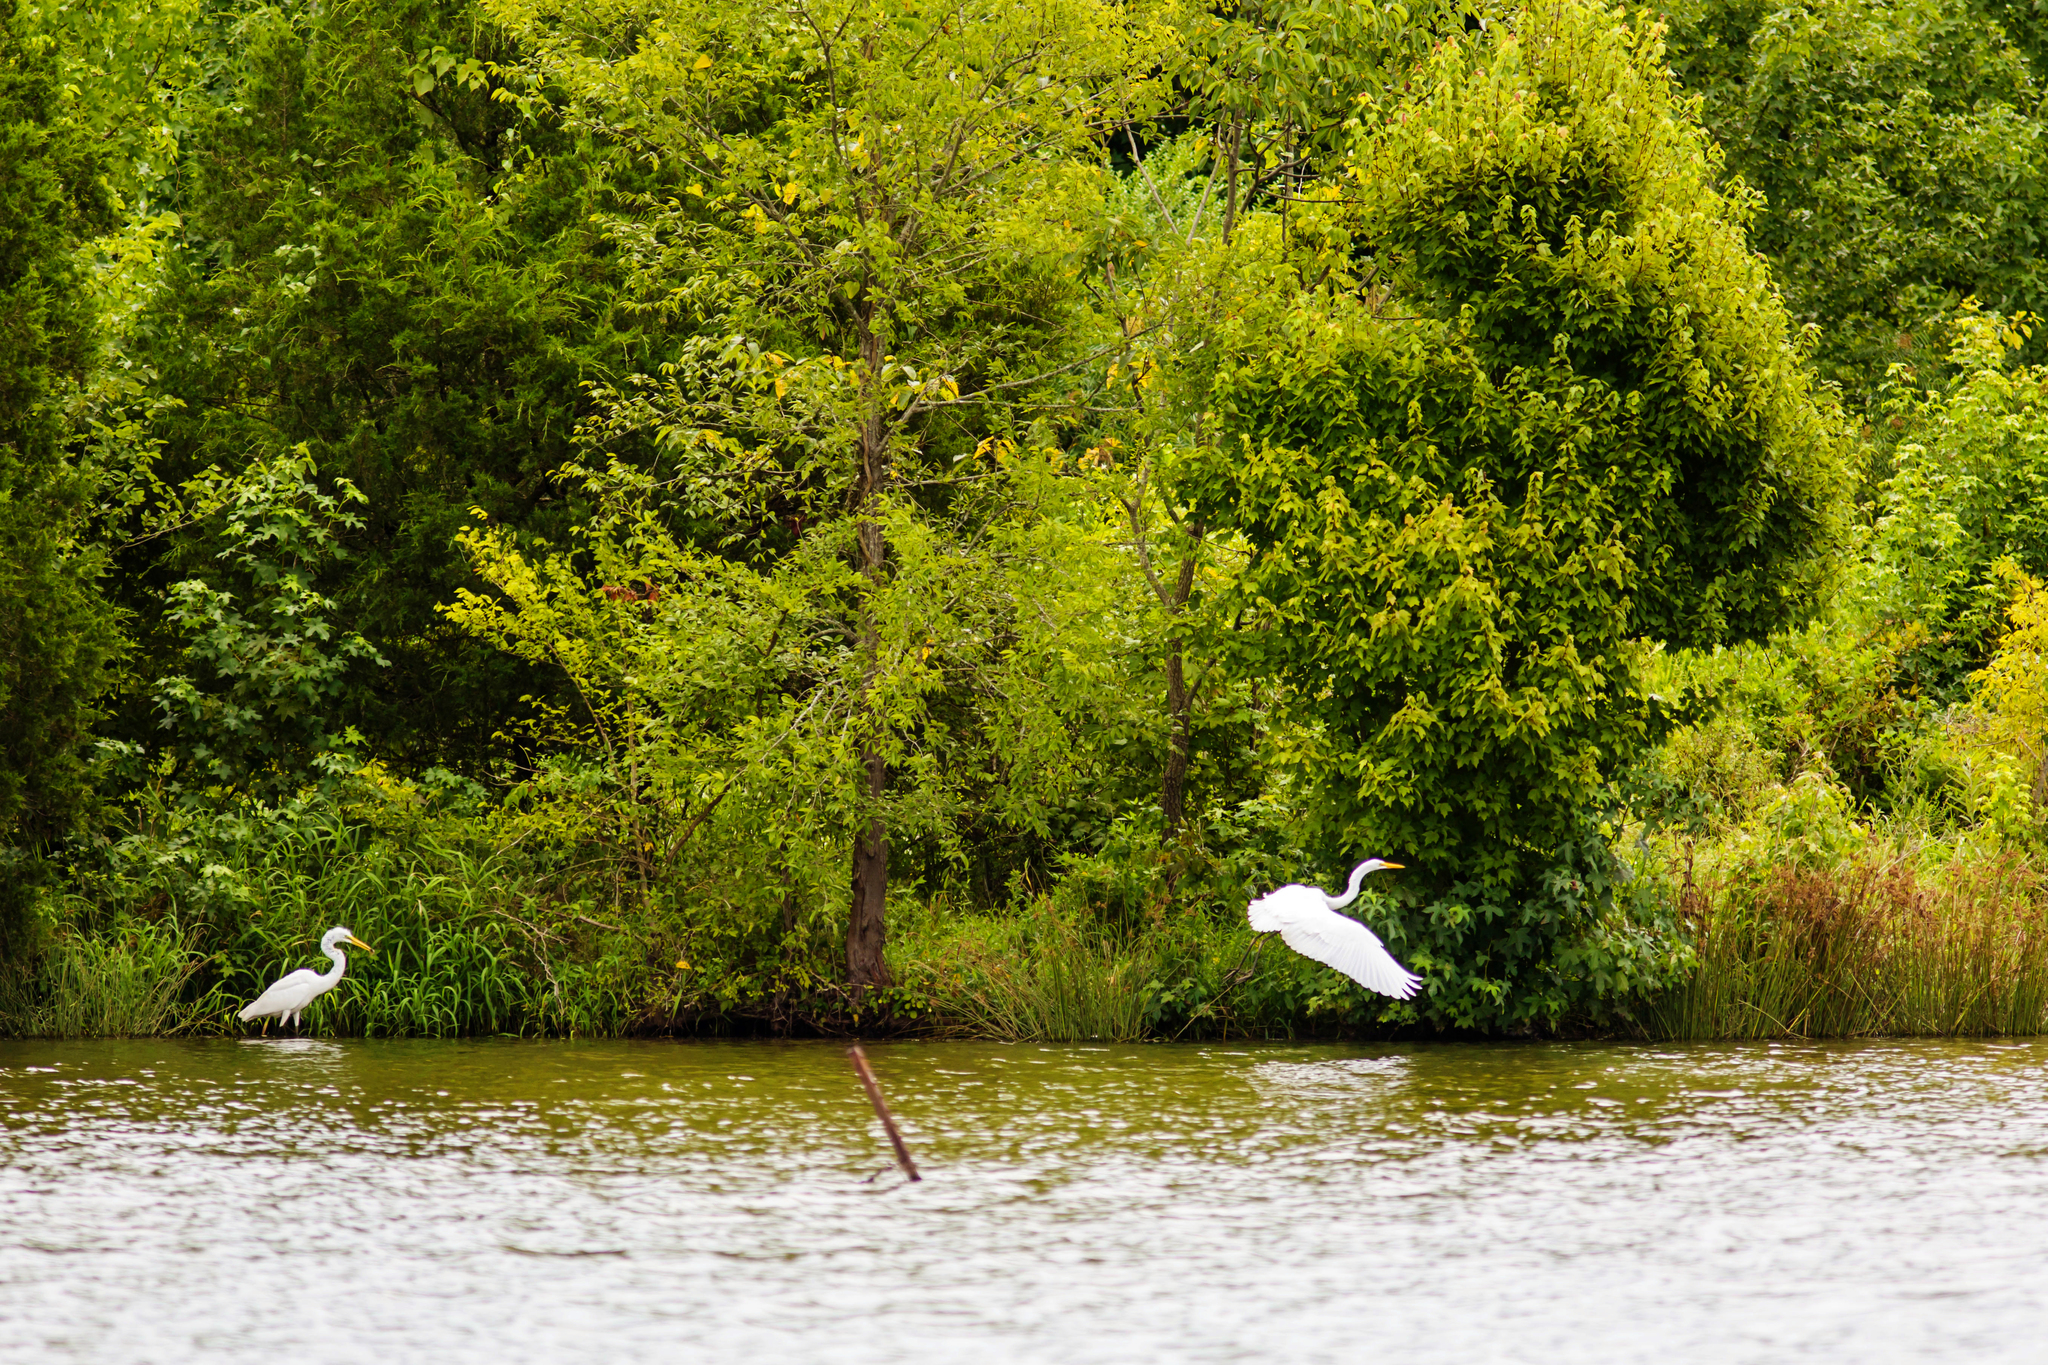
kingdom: Animalia
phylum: Chordata
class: Aves
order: Pelecaniformes
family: Ardeidae
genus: Ardea
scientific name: Ardea alba
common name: Great egret
